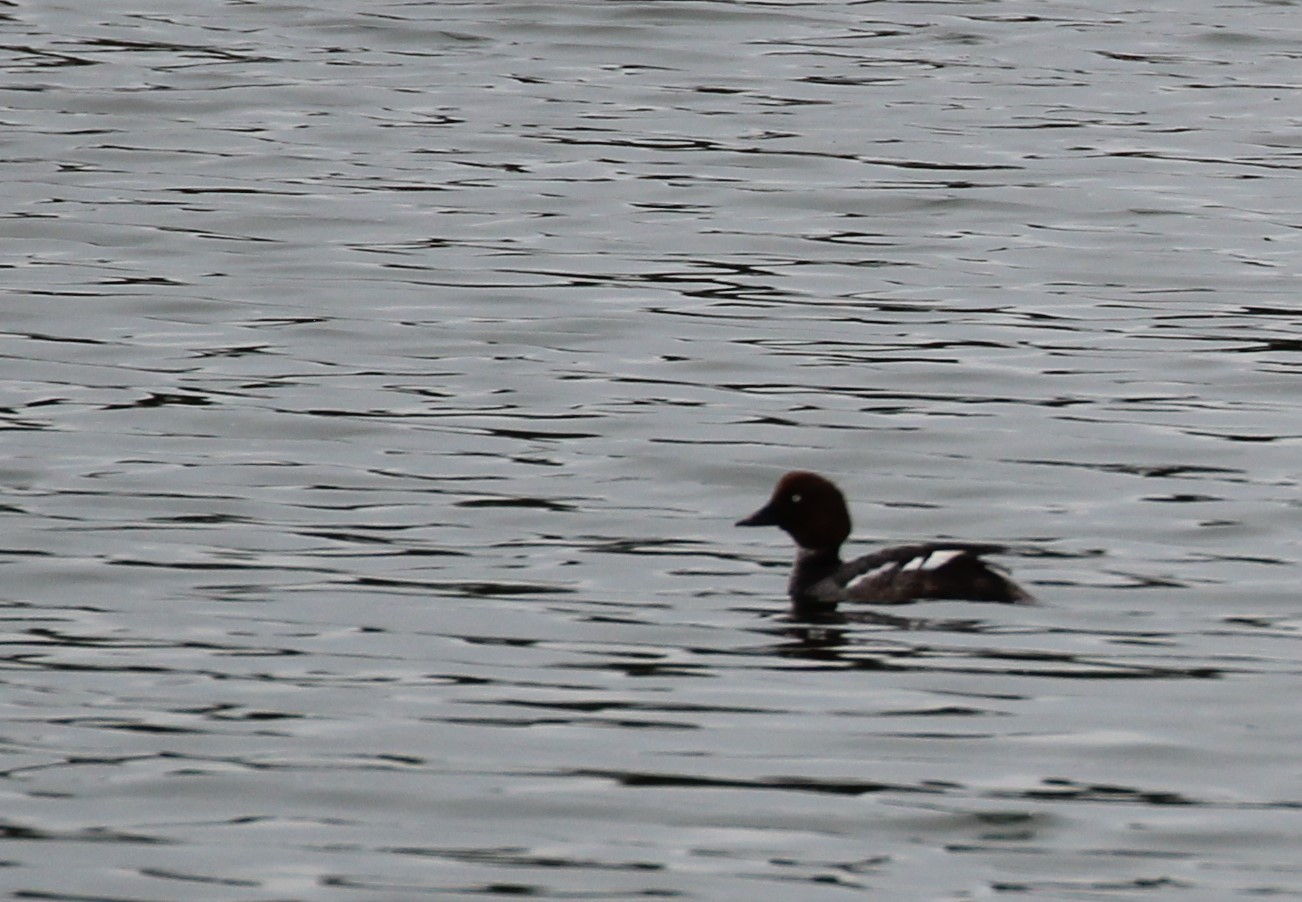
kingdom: Animalia
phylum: Chordata
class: Aves
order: Anseriformes
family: Anatidae
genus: Bucephala
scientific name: Bucephala clangula
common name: Common goldeneye
